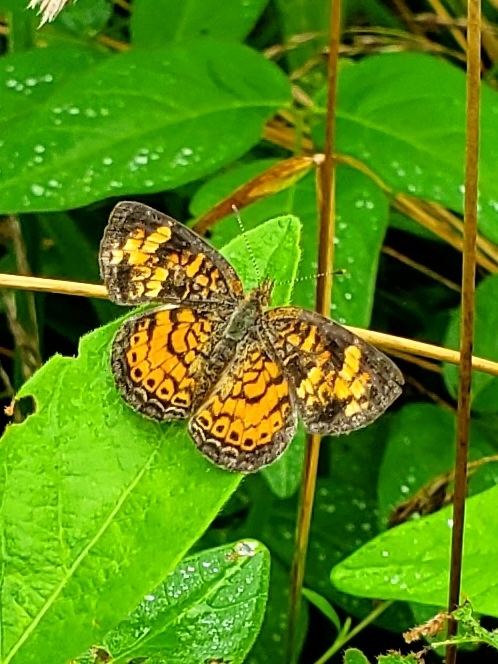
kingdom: Animalia
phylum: Arthropoda
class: Insecta
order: Lepidoptera
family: Nymphalidae
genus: Phyciodes
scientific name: Phyciodes tharos
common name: Pearl crescent
